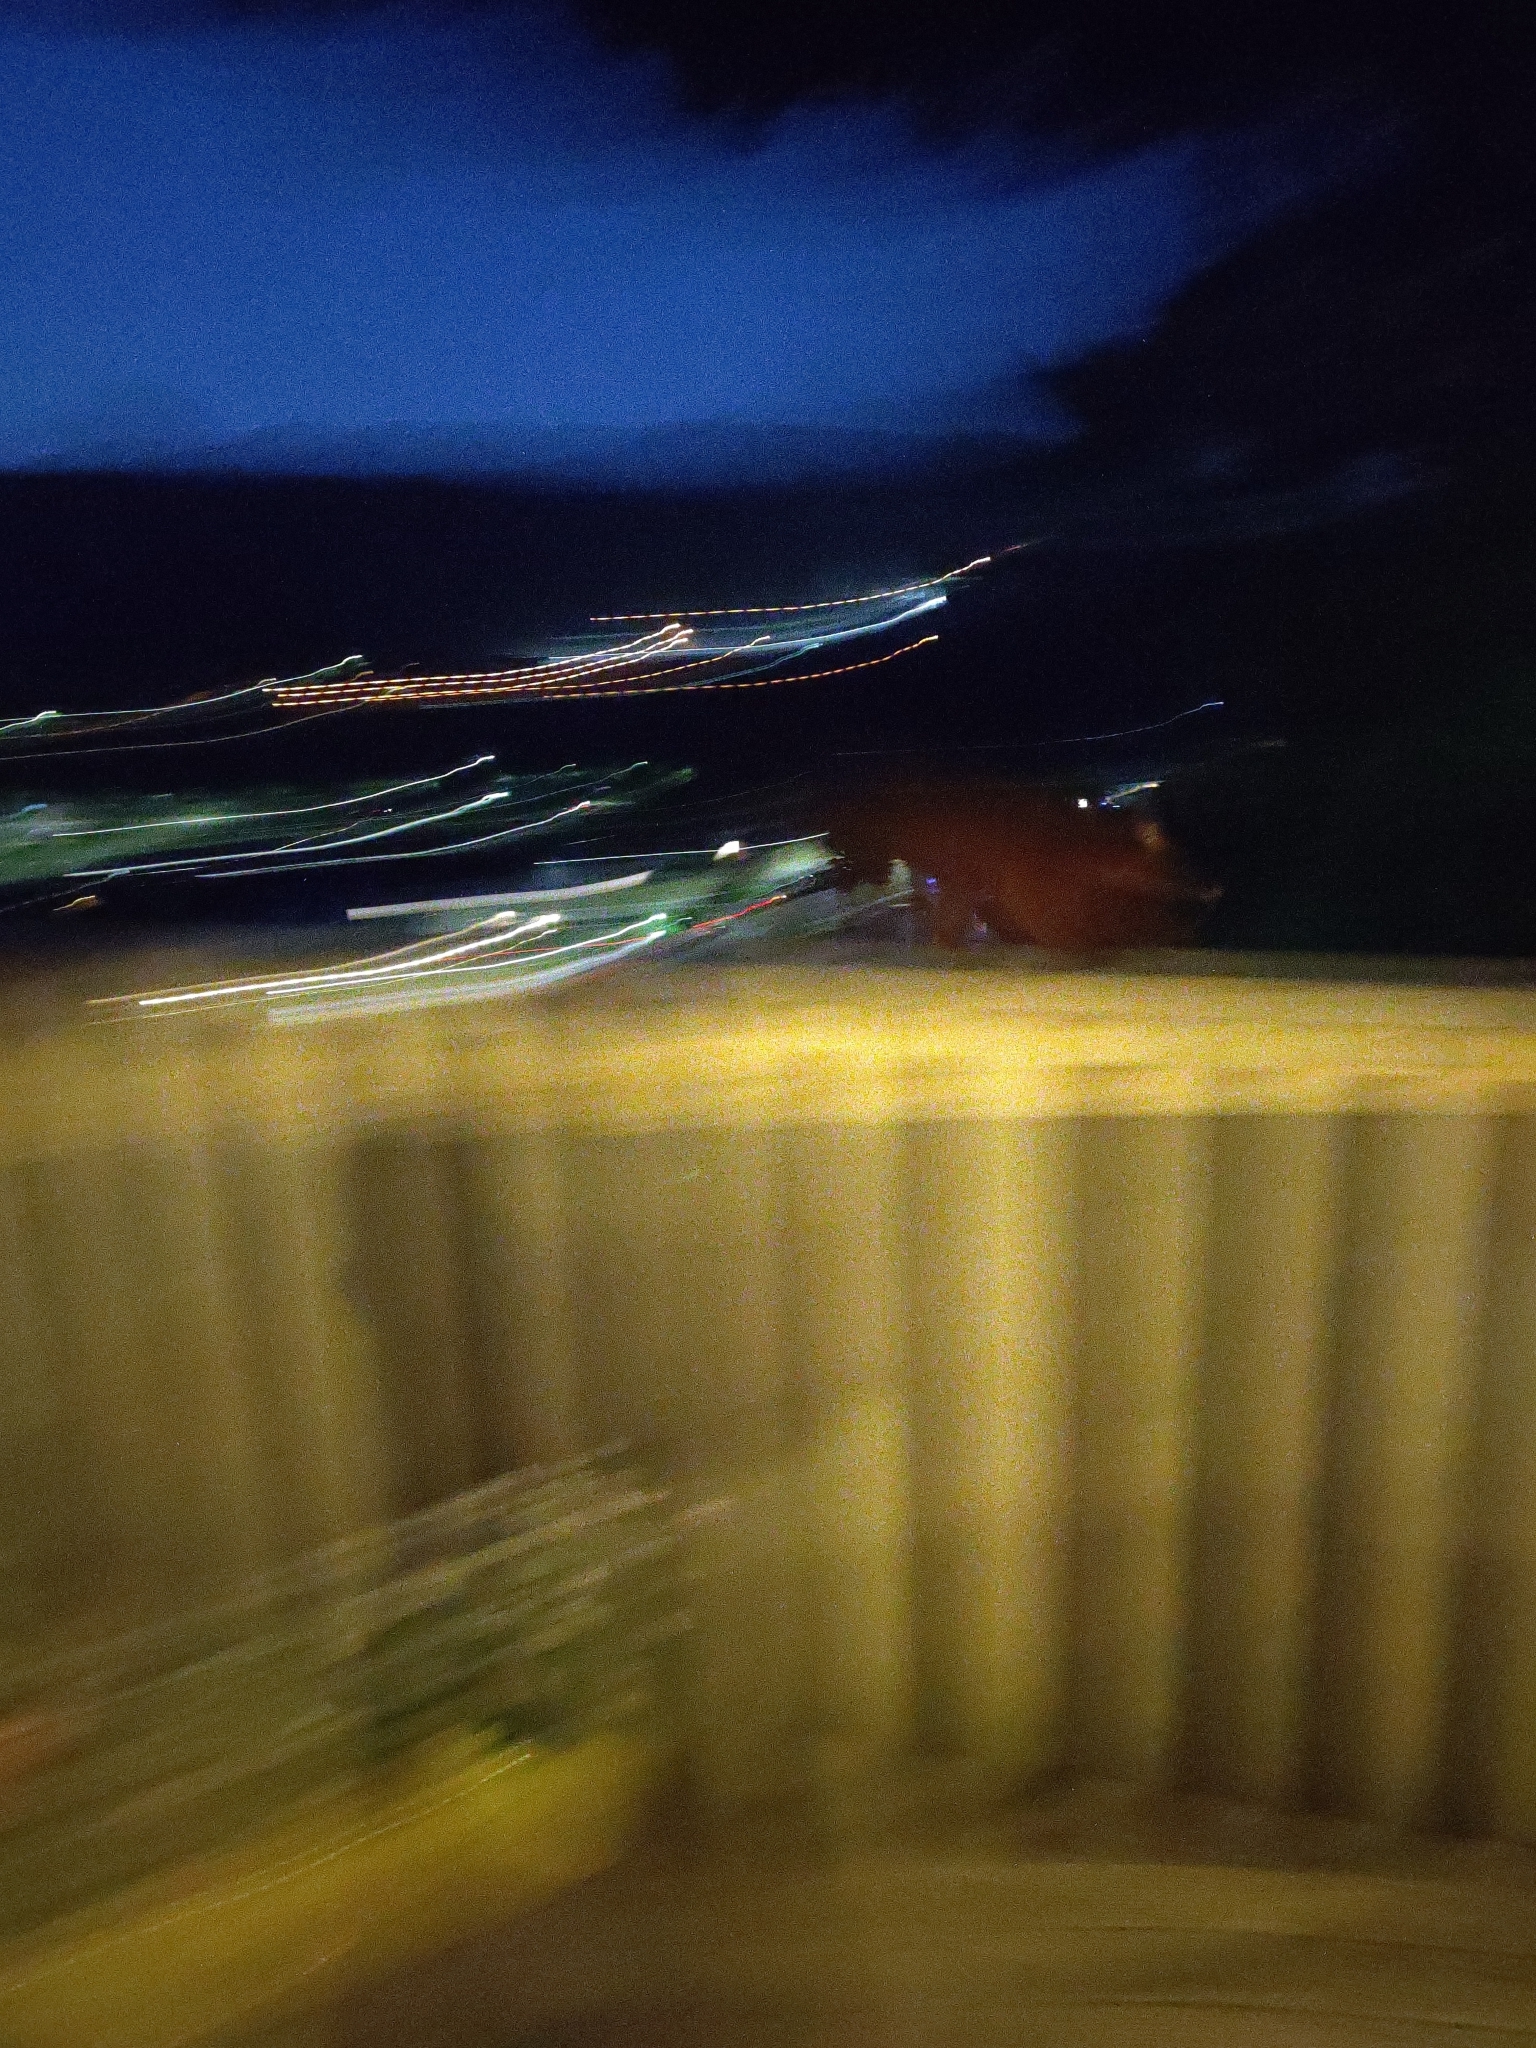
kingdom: Animalia
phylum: Chordata
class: Mammalia
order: Diprotodontia
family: Phalangeridae
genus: Trichosurus
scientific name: Trichosurus vulpecula
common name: Common brushtail
